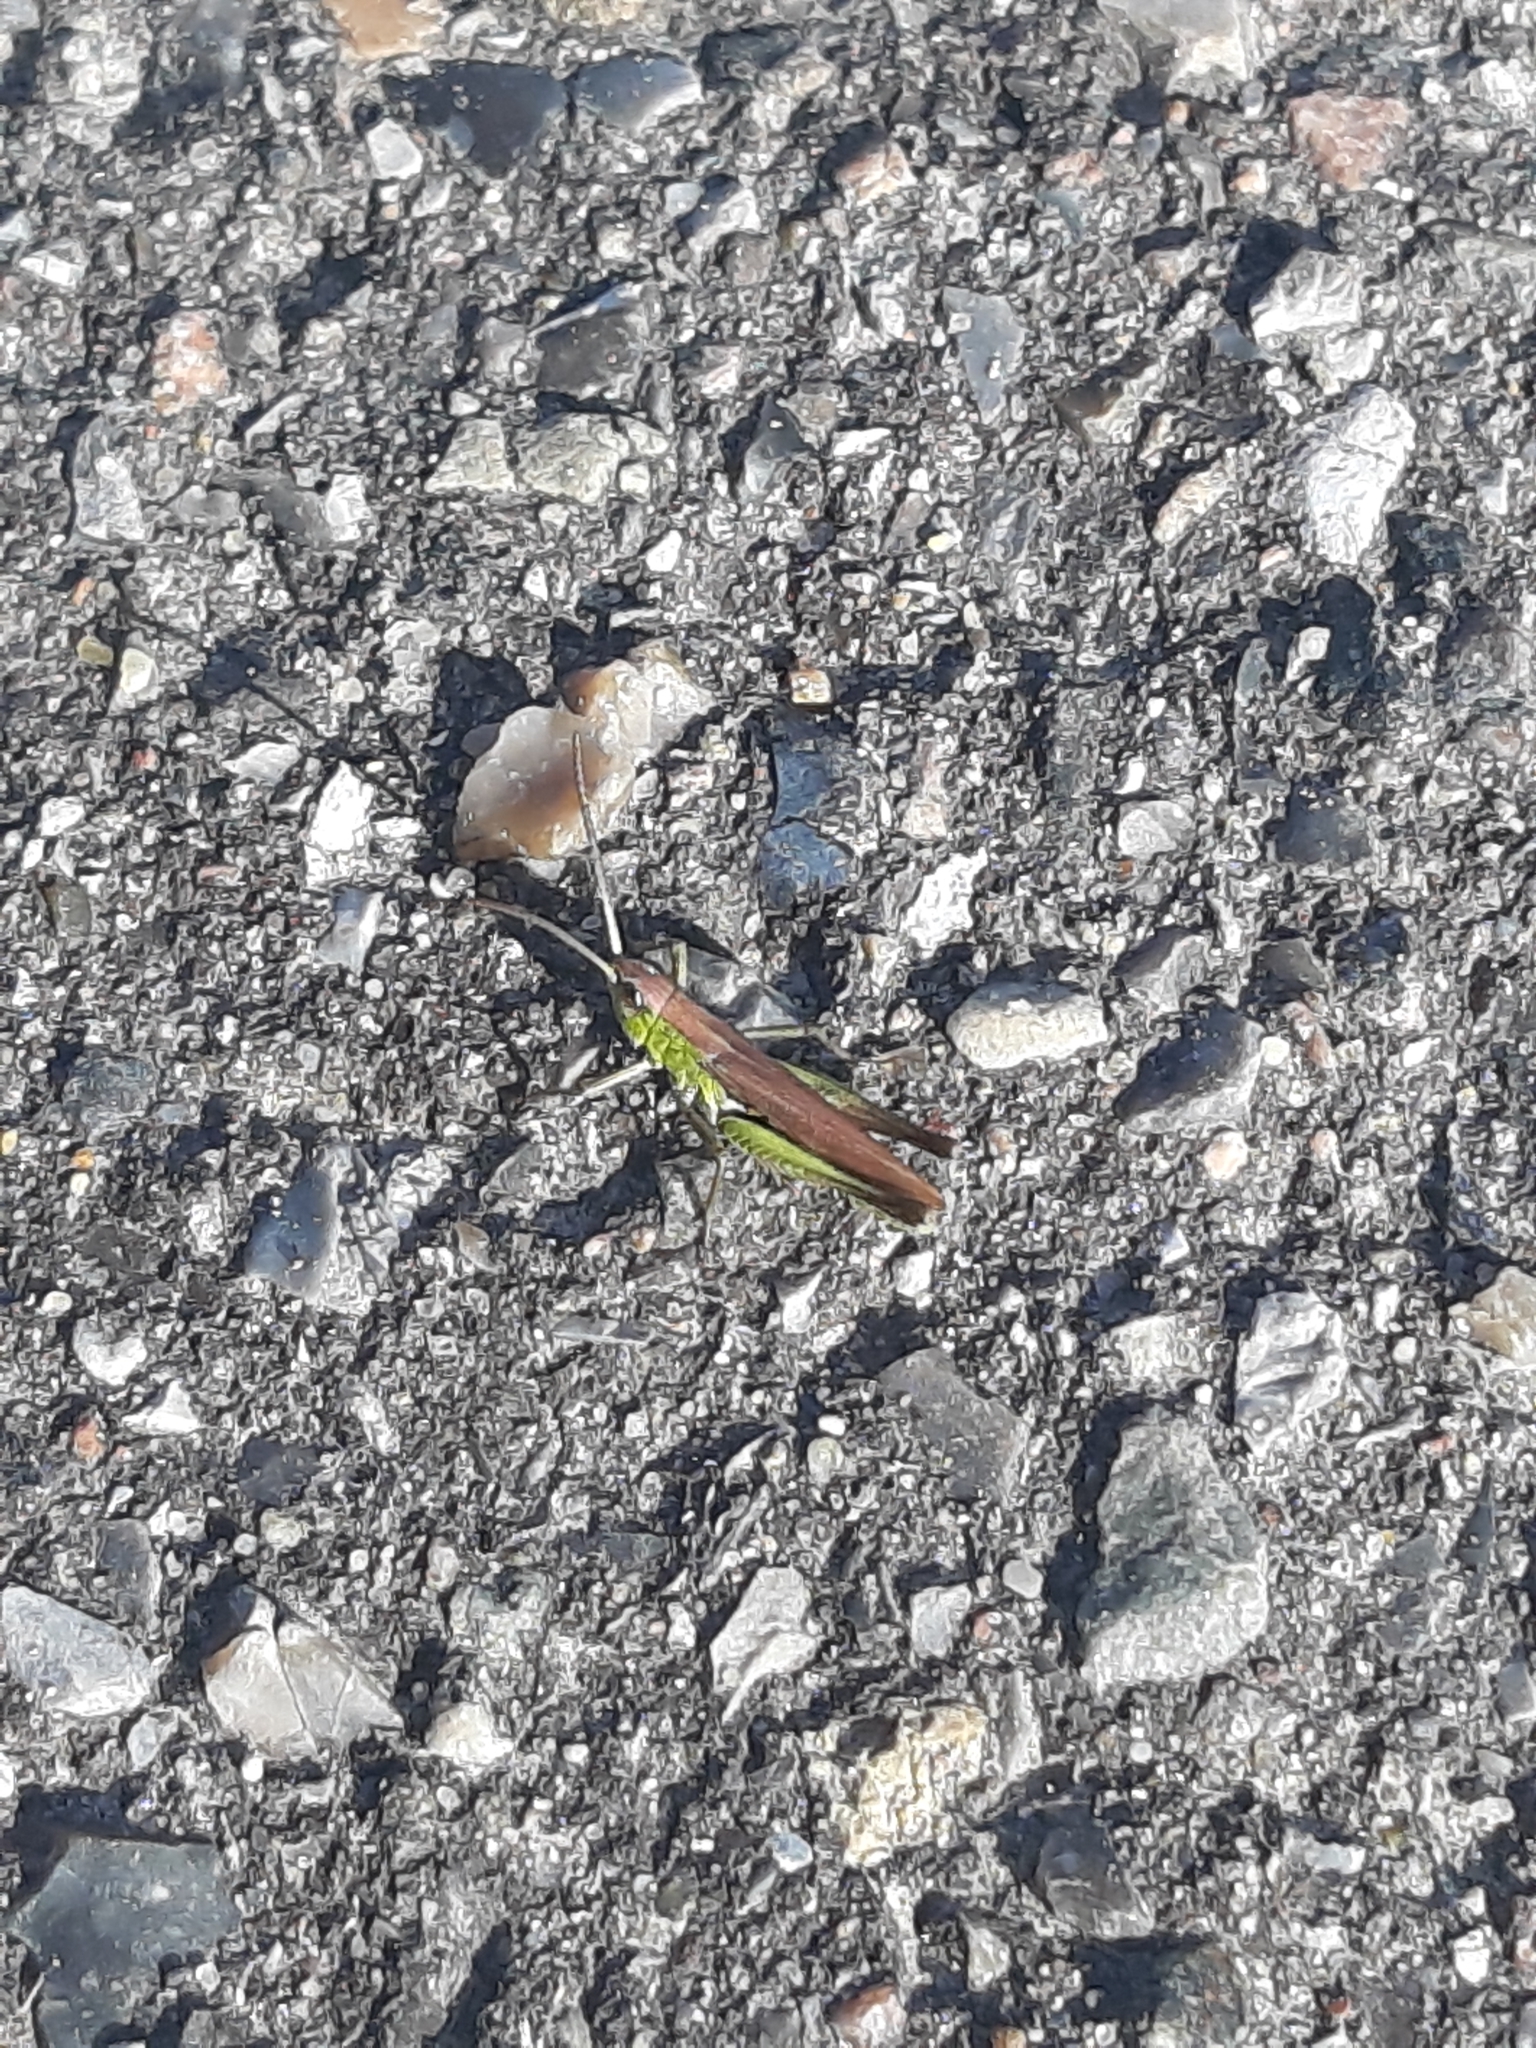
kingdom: Animalia
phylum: Arthropoda
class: Insecta
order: Orthoptera
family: Acrididae
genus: Chorthippus
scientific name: Chorthippus albomarginatus
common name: Lesser marsh grasshopper
